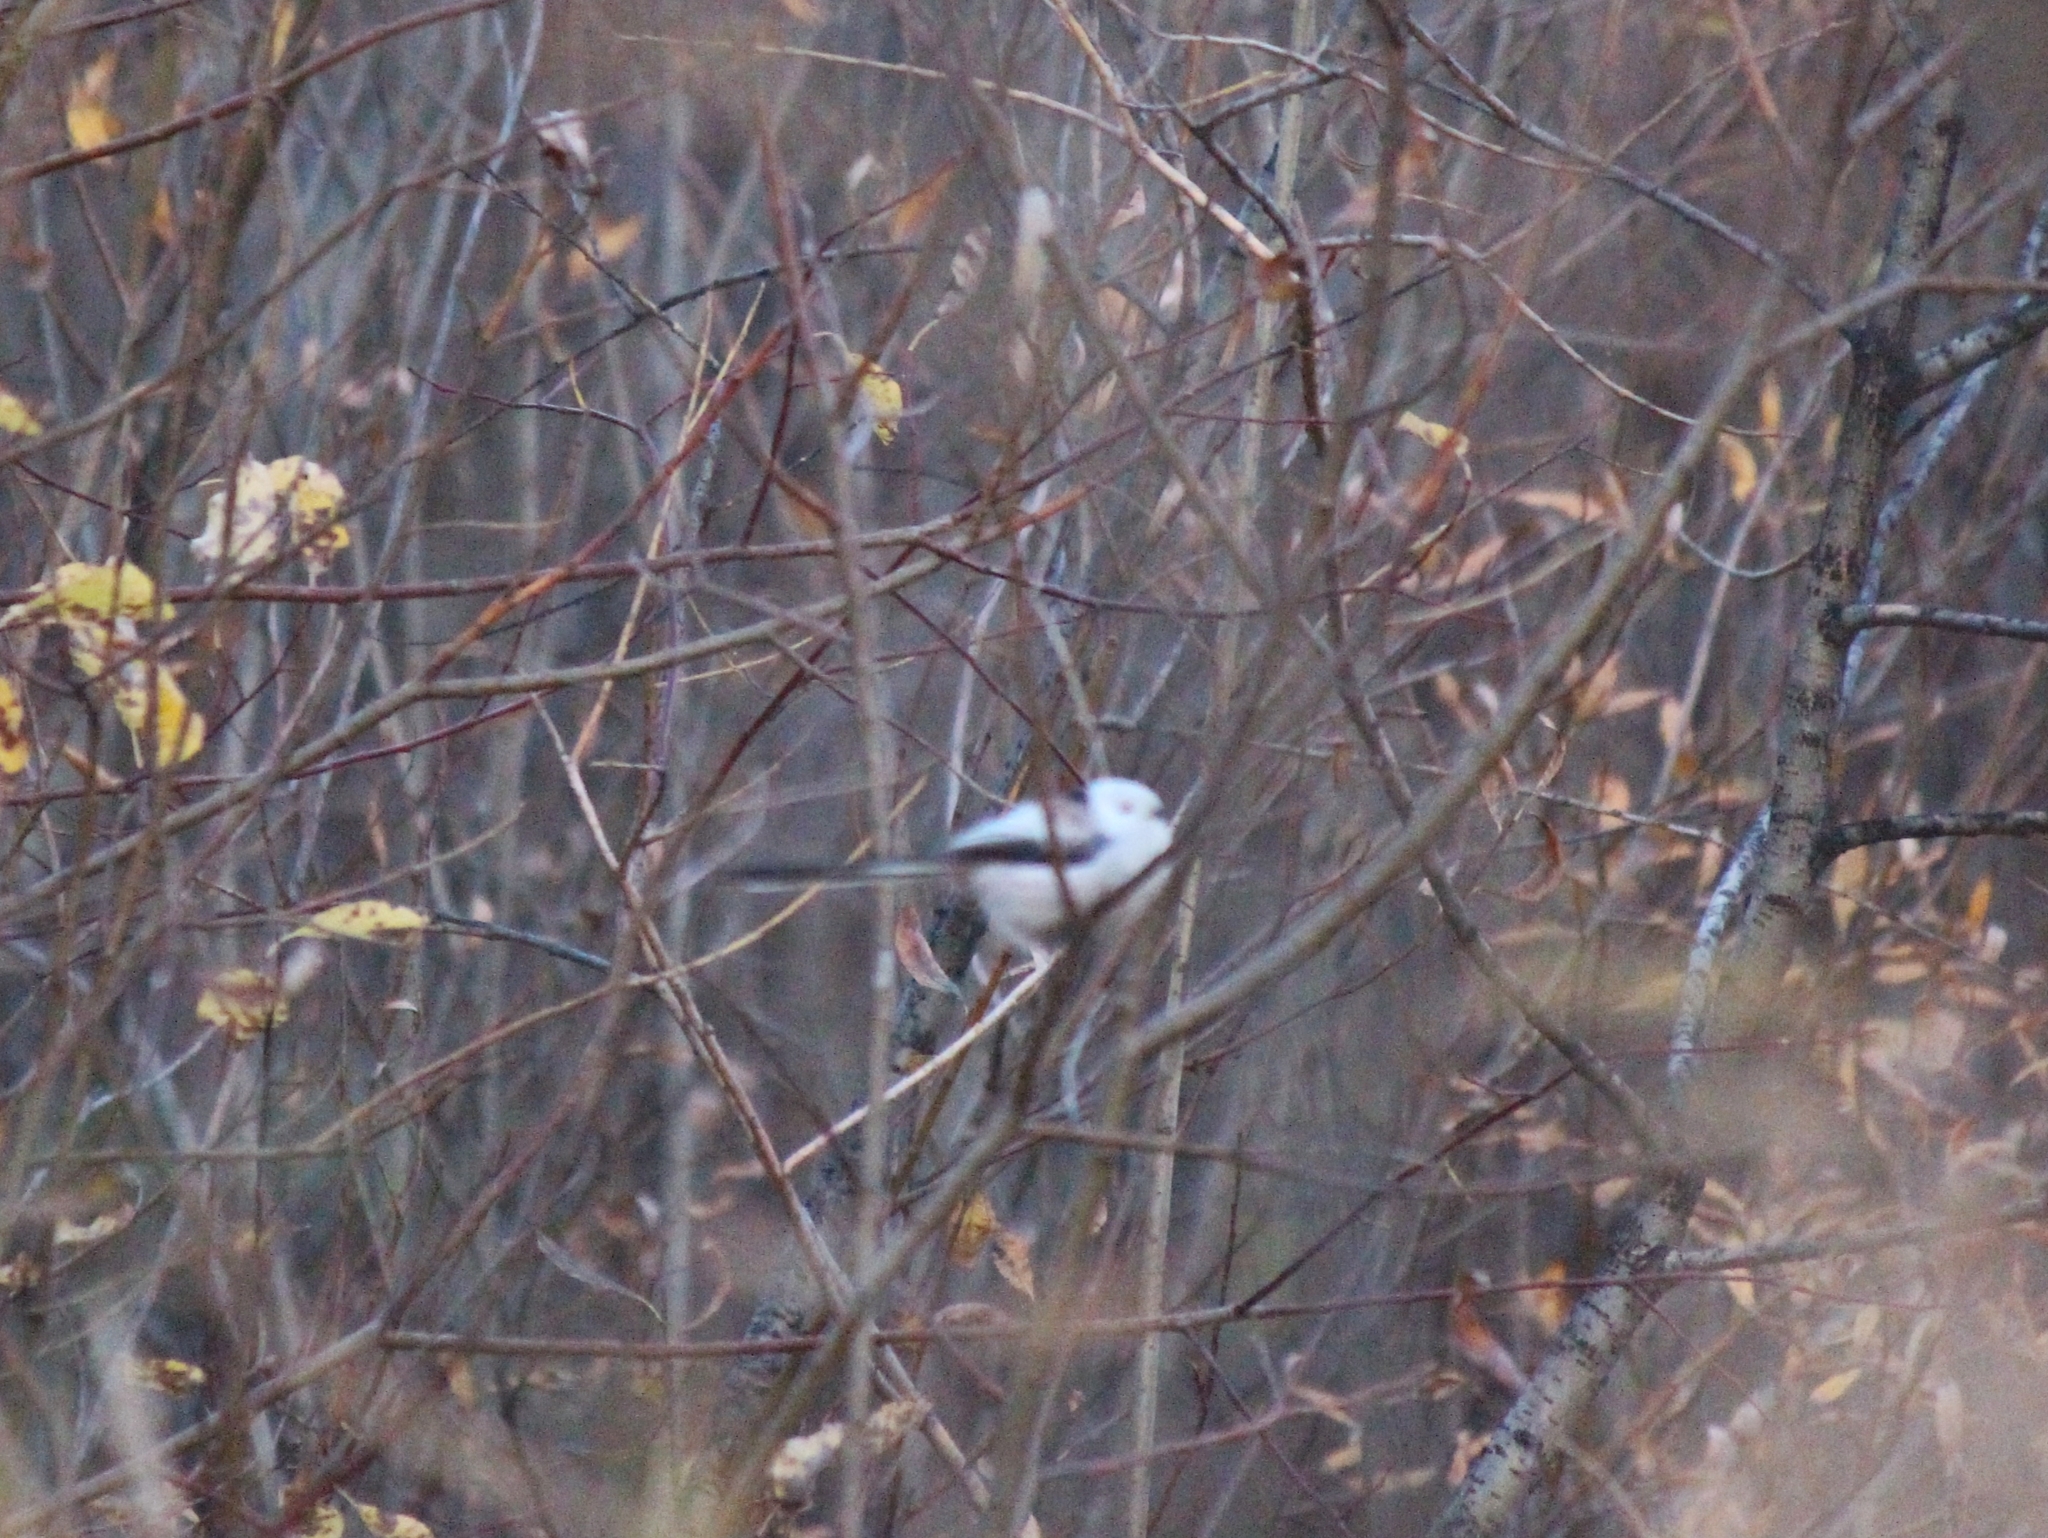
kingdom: Animalia
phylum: Chordata
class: Aves
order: Passeriformes
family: Aegithalidae
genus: Aegithalos
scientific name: Aegithalos caudatus
